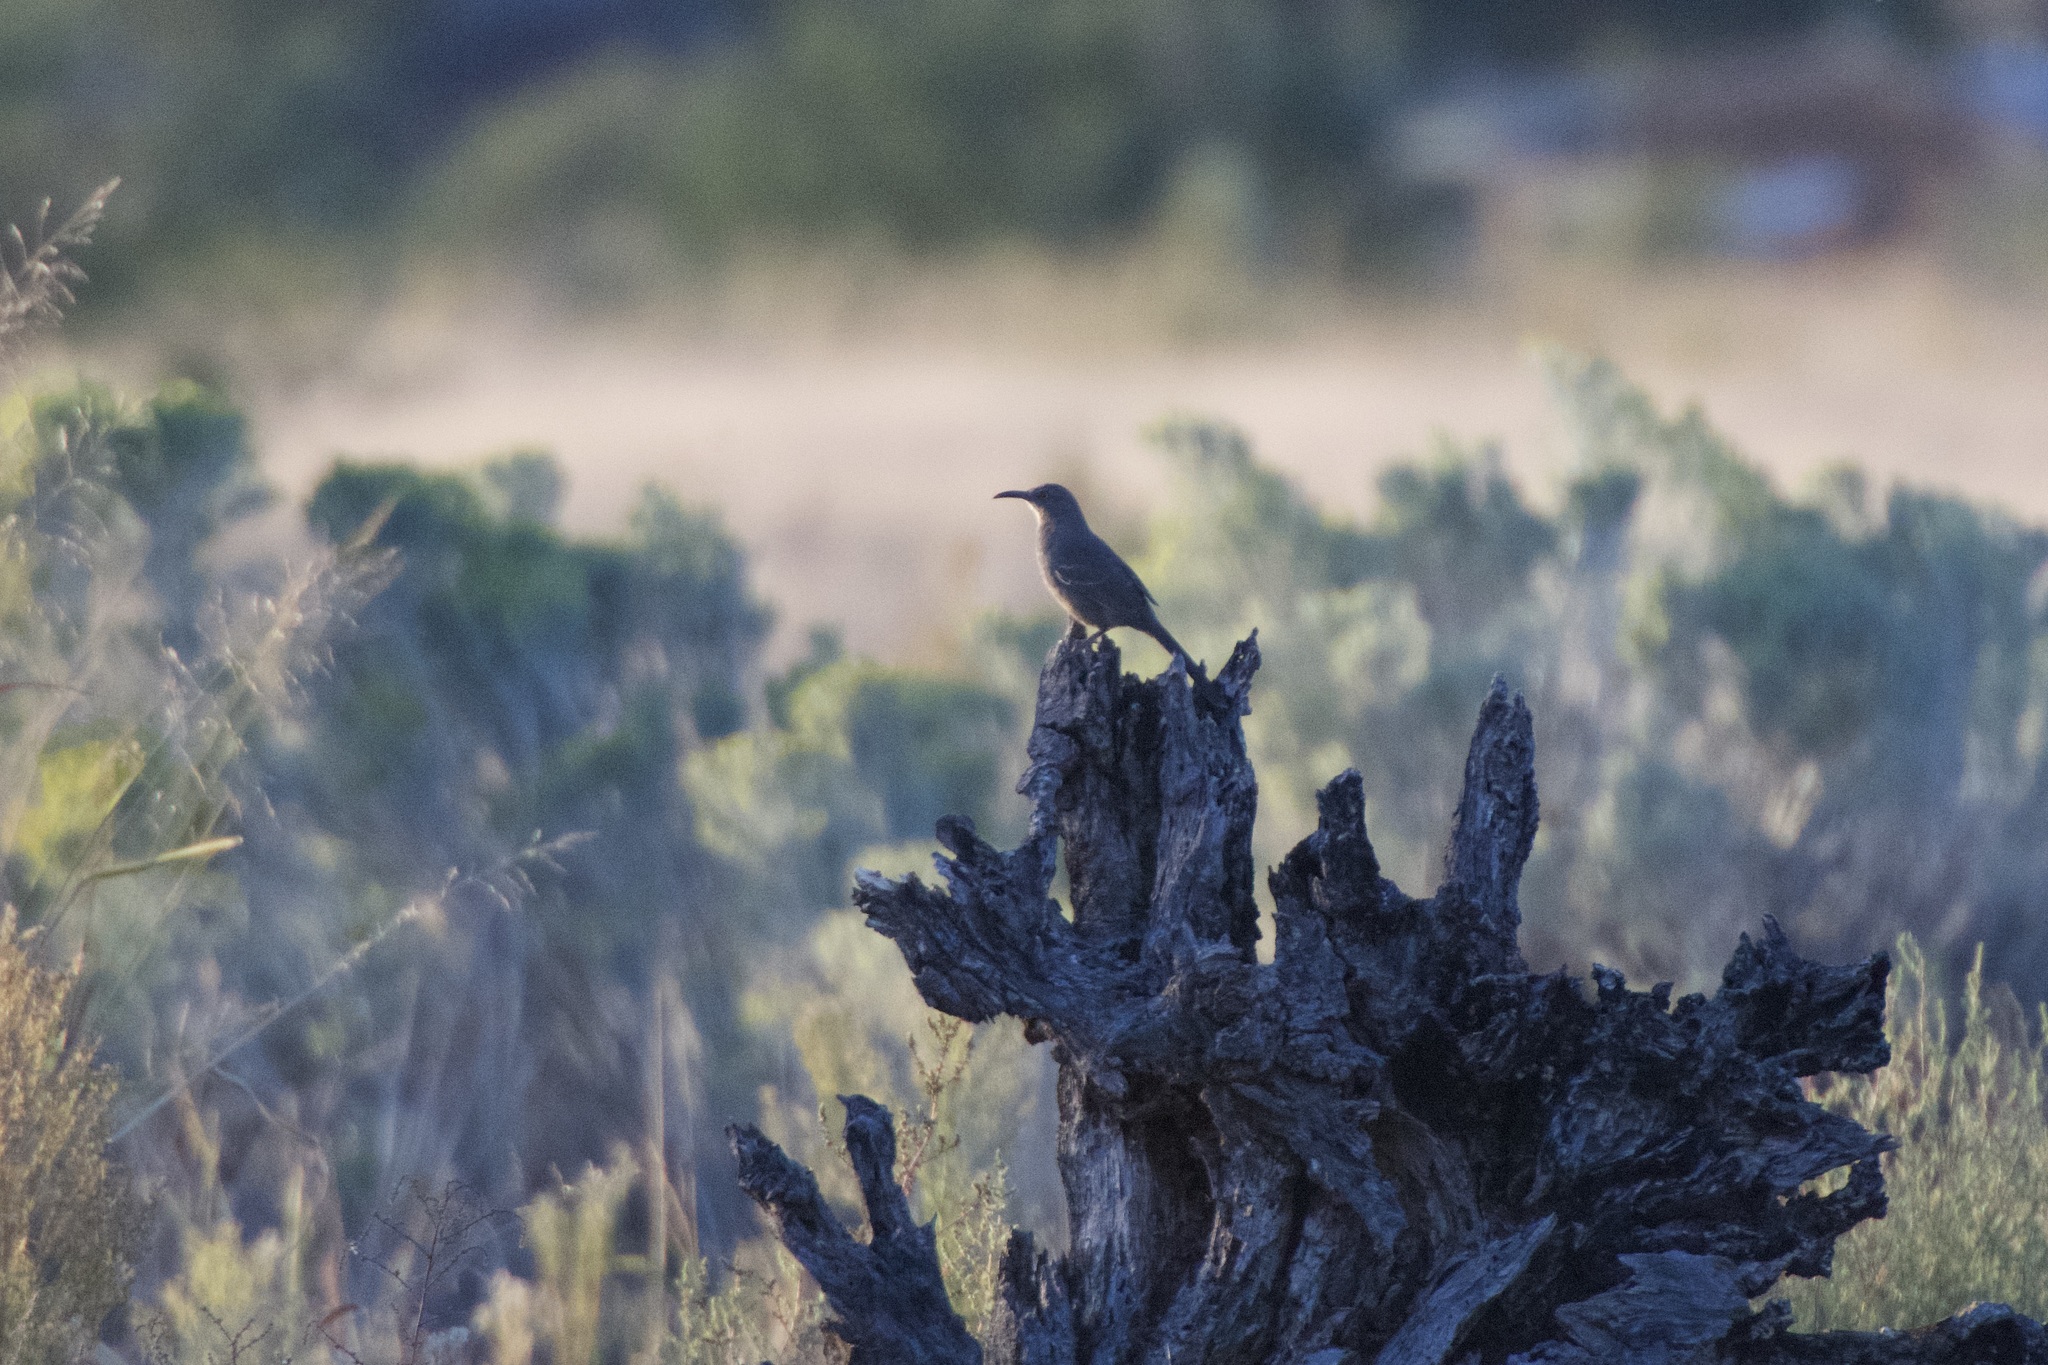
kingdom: Animalia
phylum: Chordata
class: Aves
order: Passeriformes
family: Mimidae
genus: Toxostoma
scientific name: Toxostoma curvirostre
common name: Curve-billed thrasher
